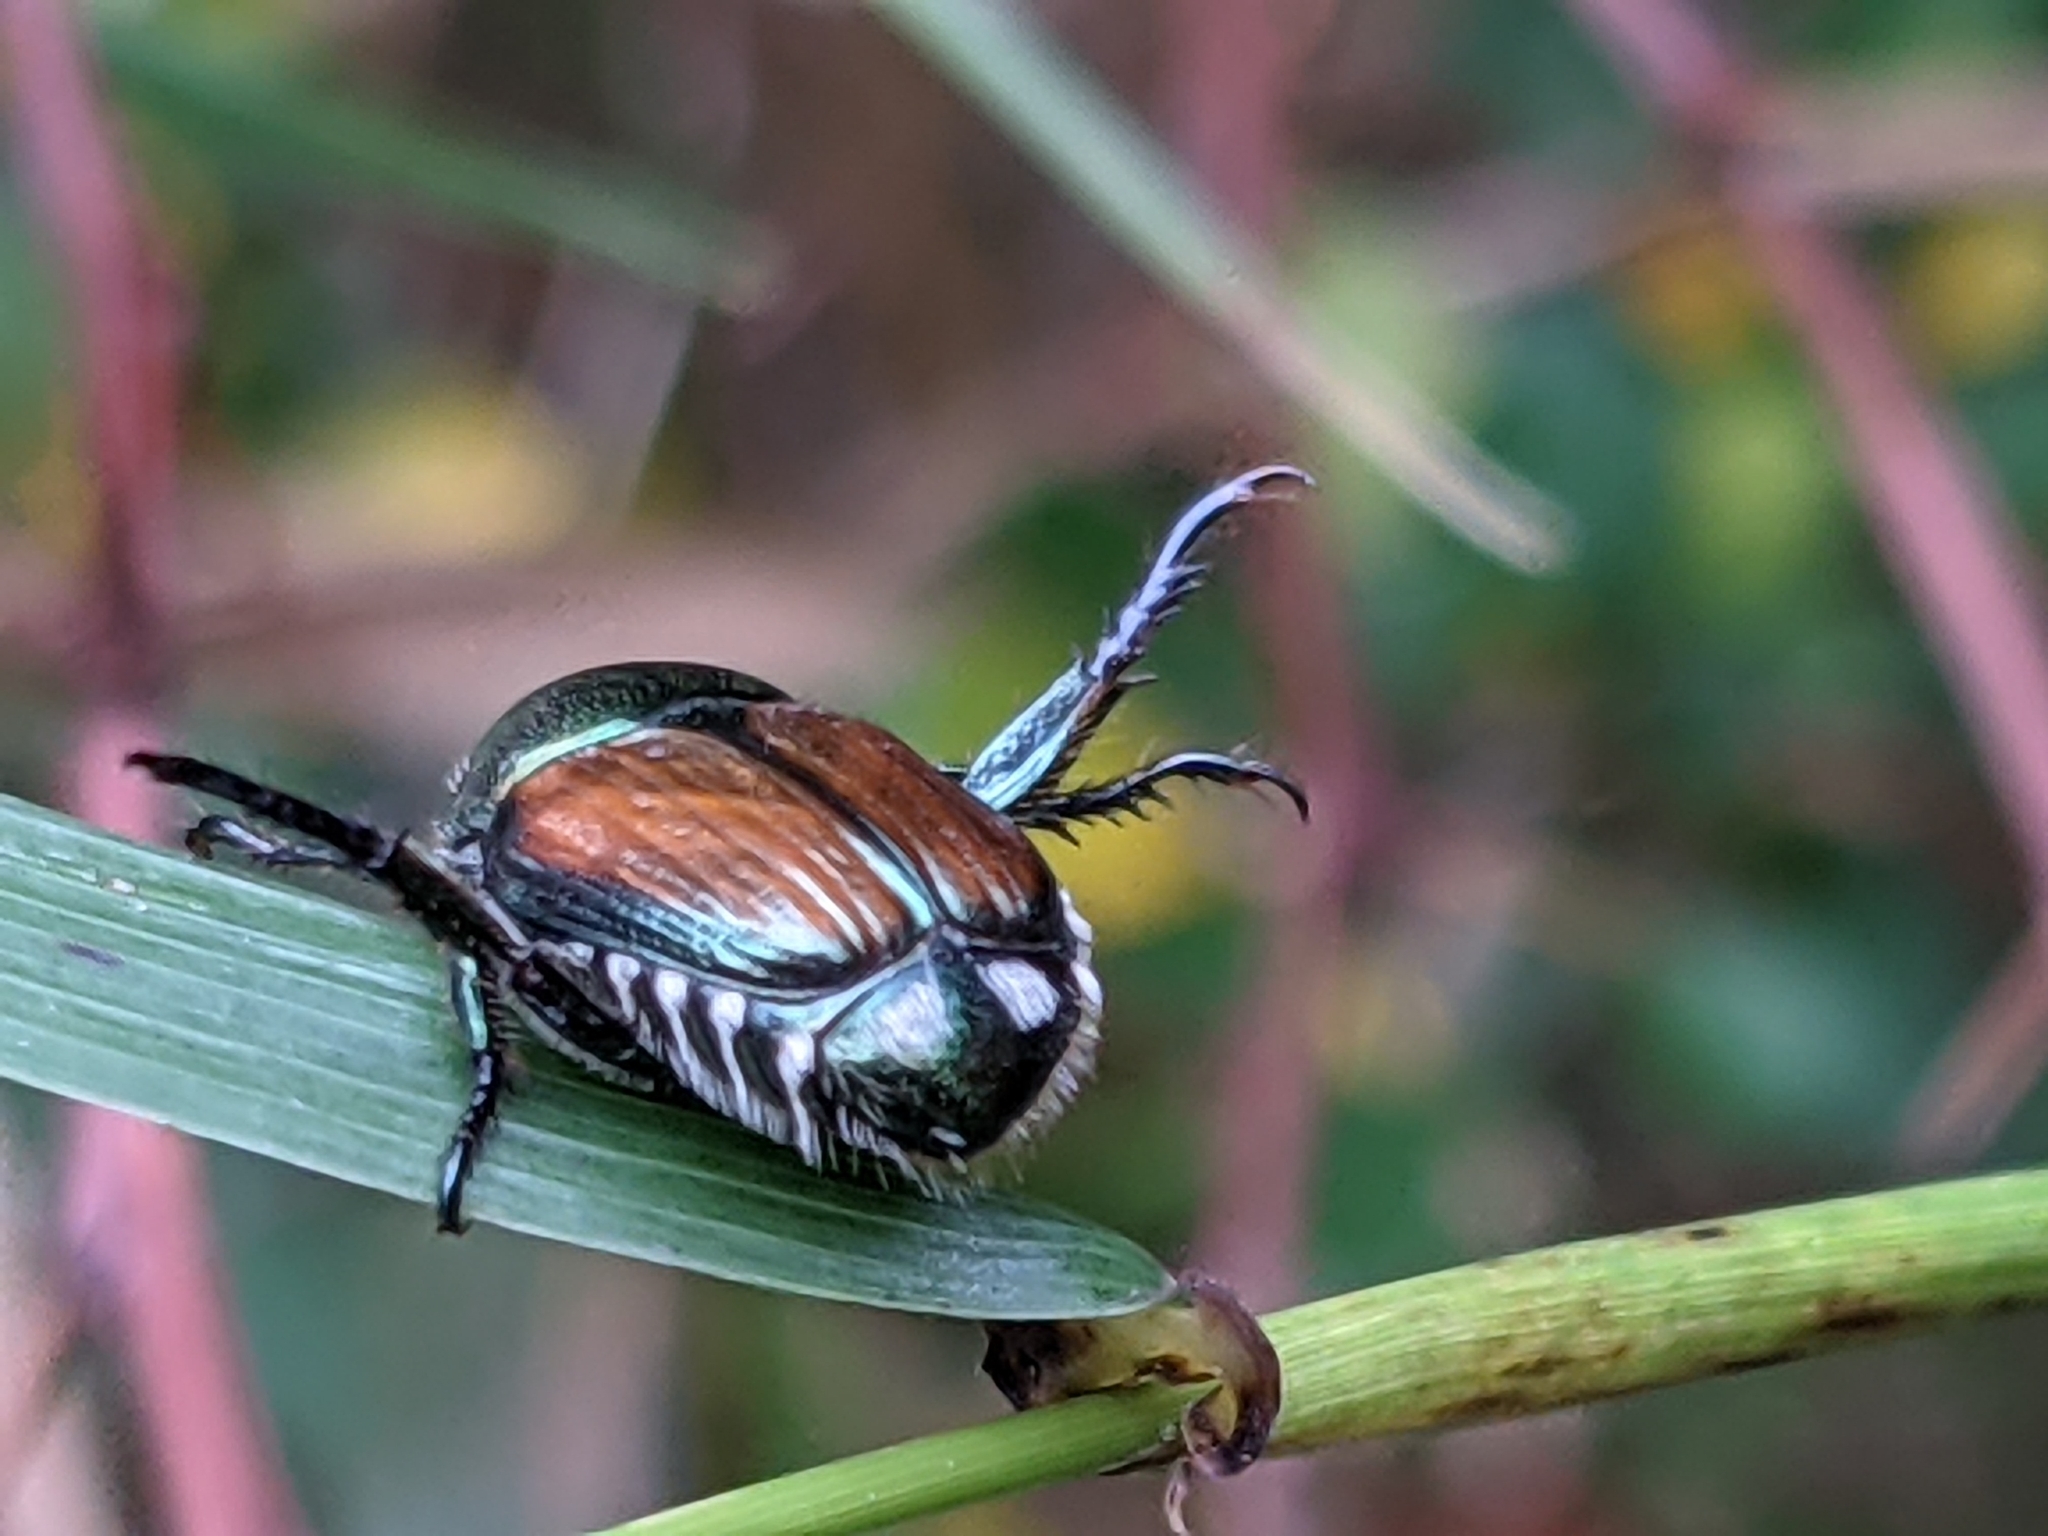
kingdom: Animalia
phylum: Arthropoda
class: Insecta
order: Coleoptera
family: Scarabaeidae
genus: Popillia
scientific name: Popillia japonica
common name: Japanese beetle
